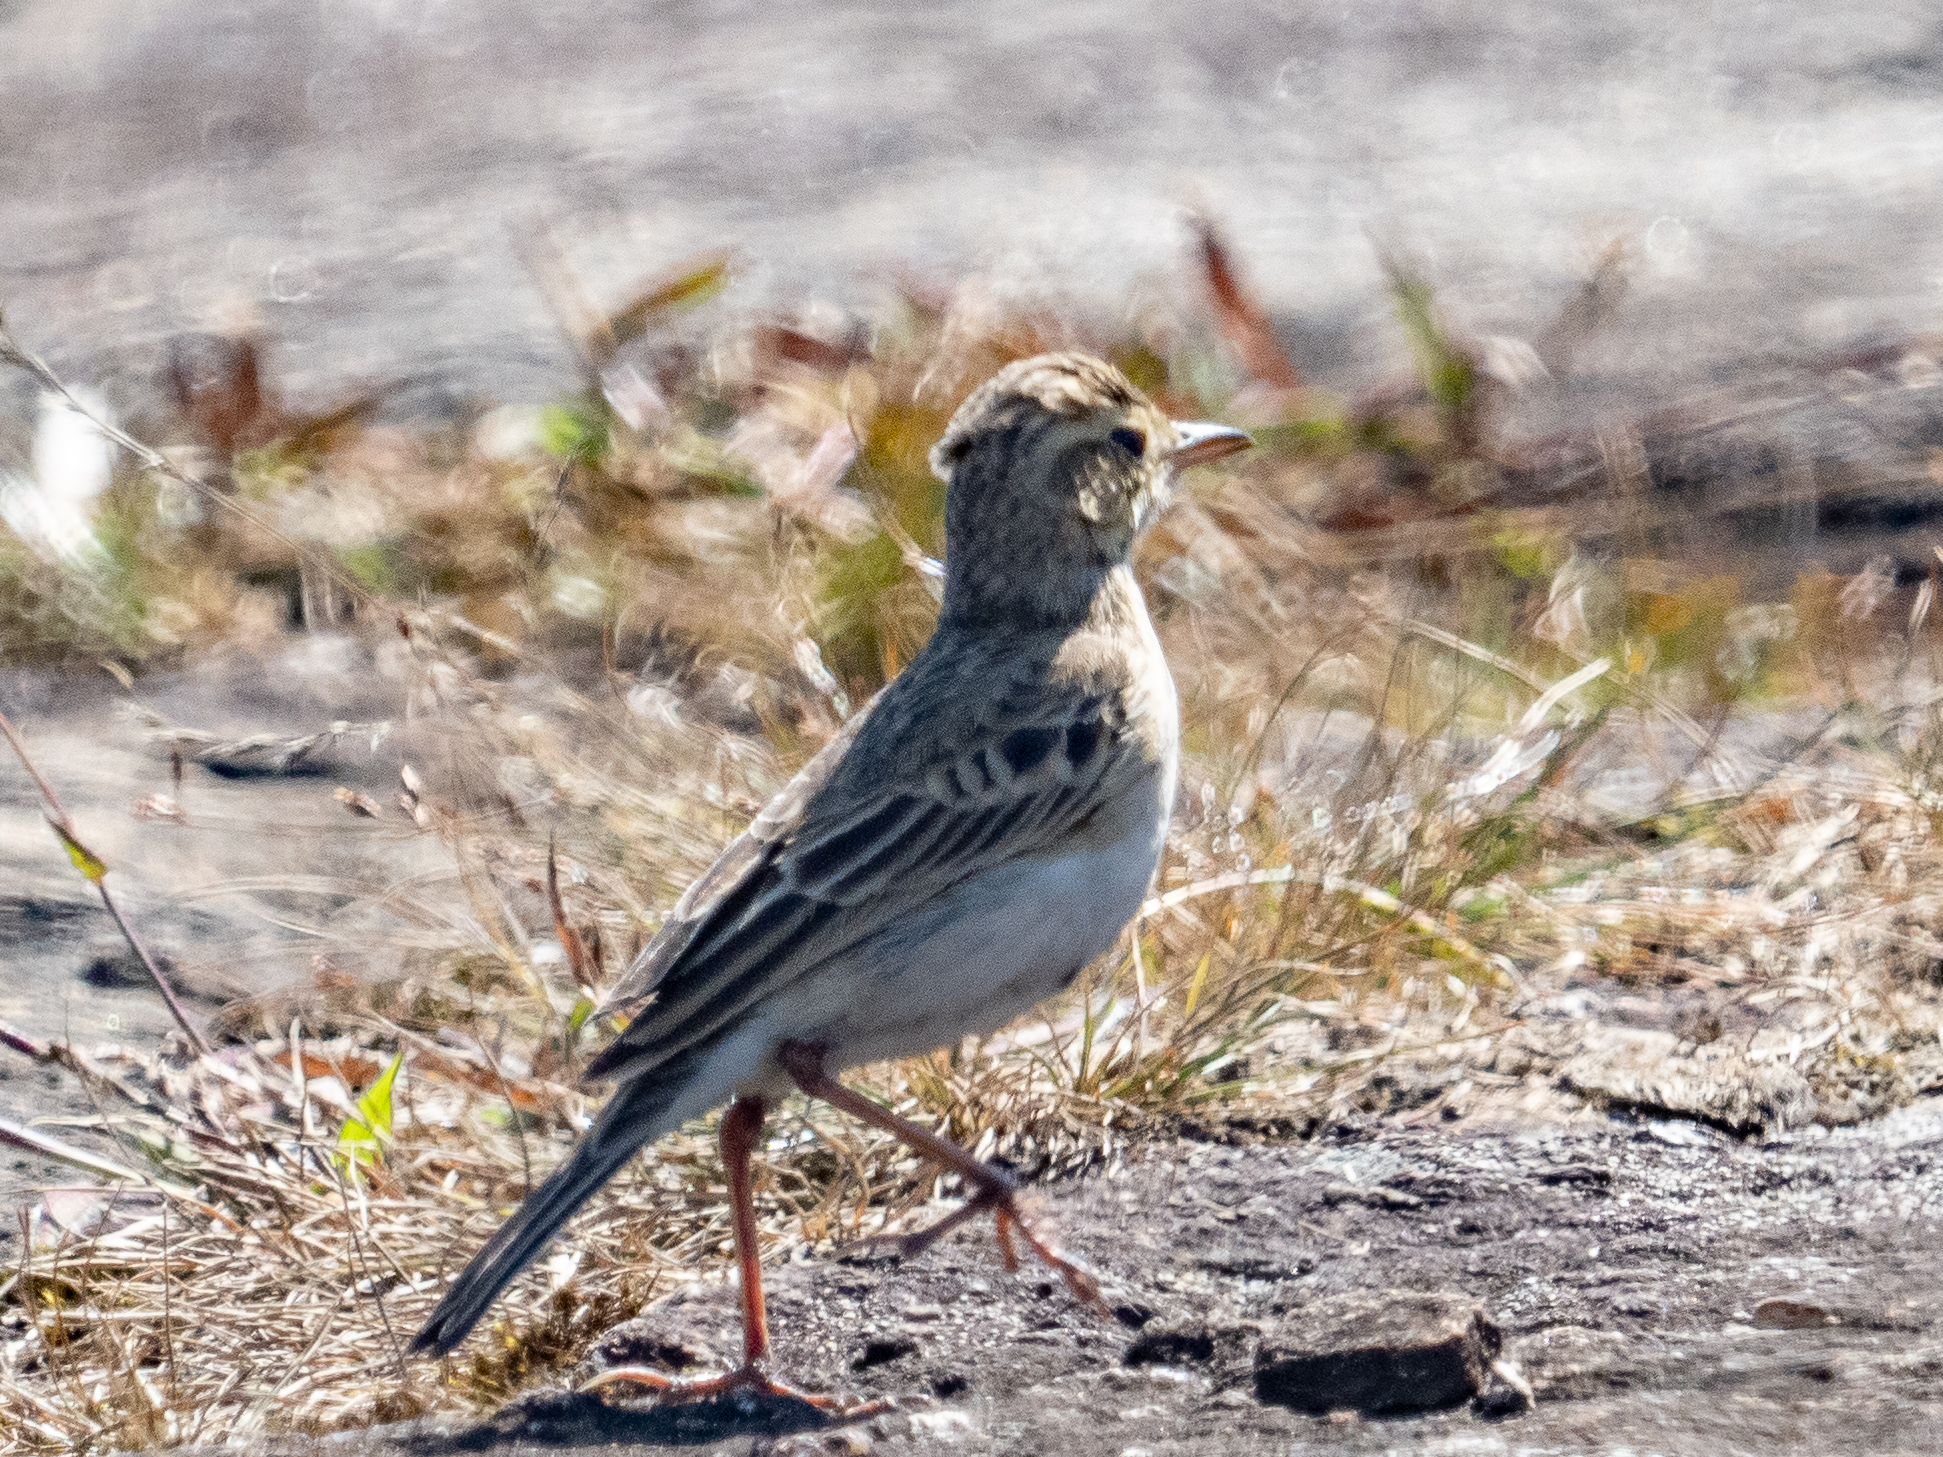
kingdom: Animalia
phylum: Chordata
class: Aves
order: Passeriformes
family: Motacillidae
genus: Anthus
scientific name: Anthus richardi
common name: Richard's pipit
